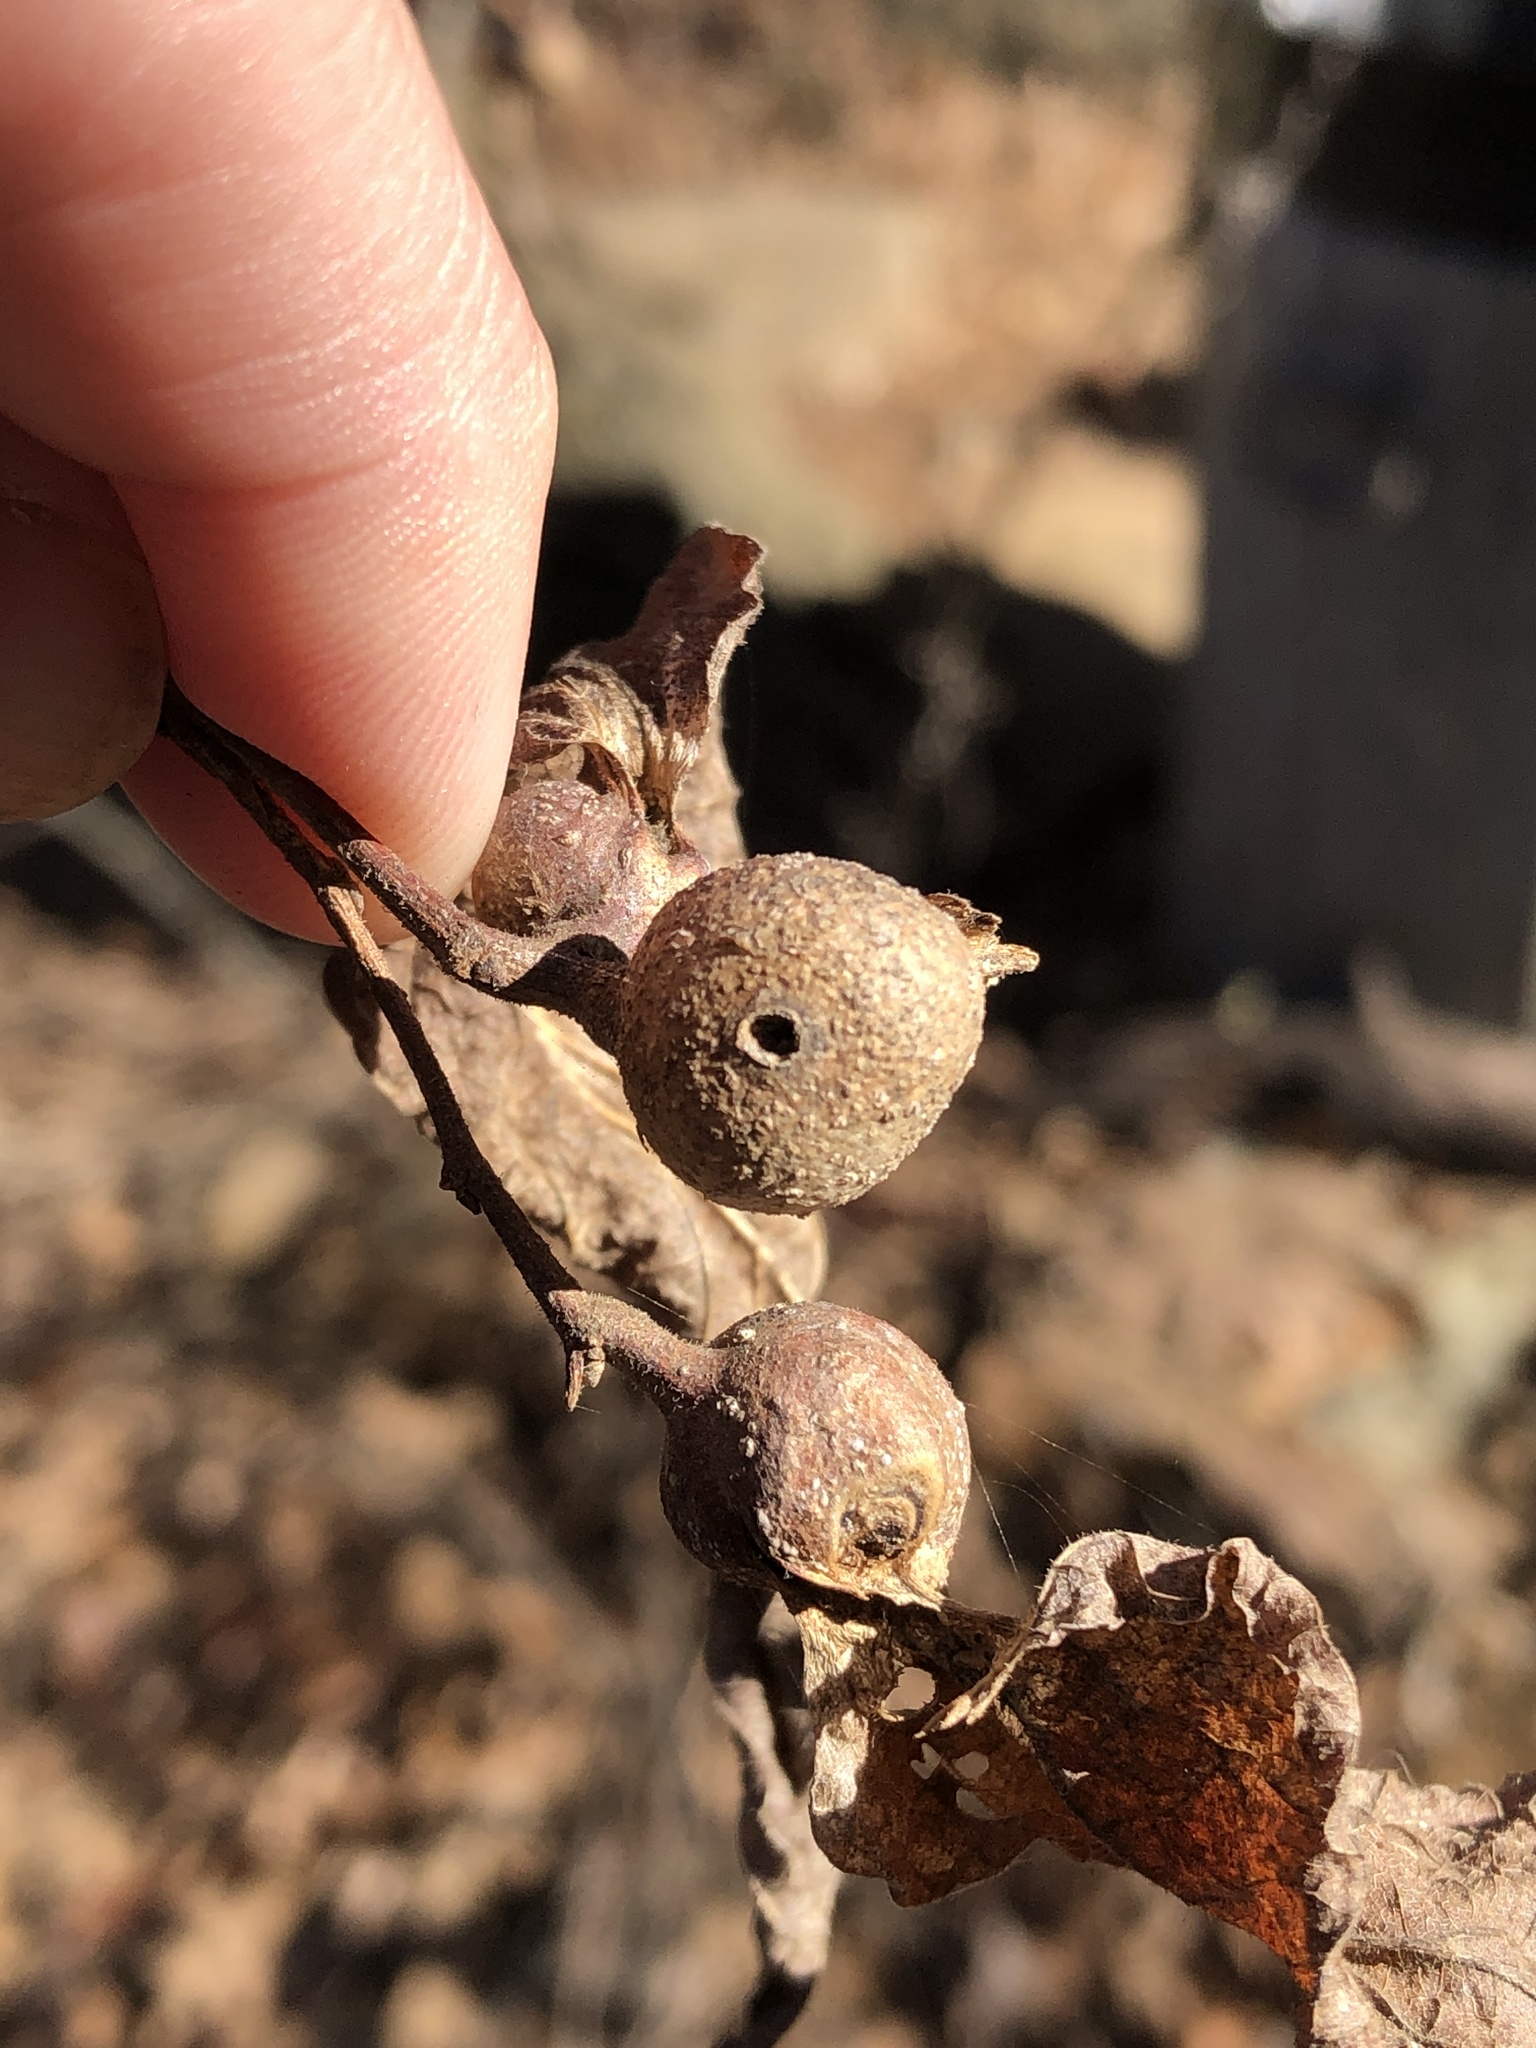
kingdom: Animalia
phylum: Arthropoda
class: Insecta
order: Hemiptera
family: Aphalaridae
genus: Pachypsylla
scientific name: Pachypsylla venusta
